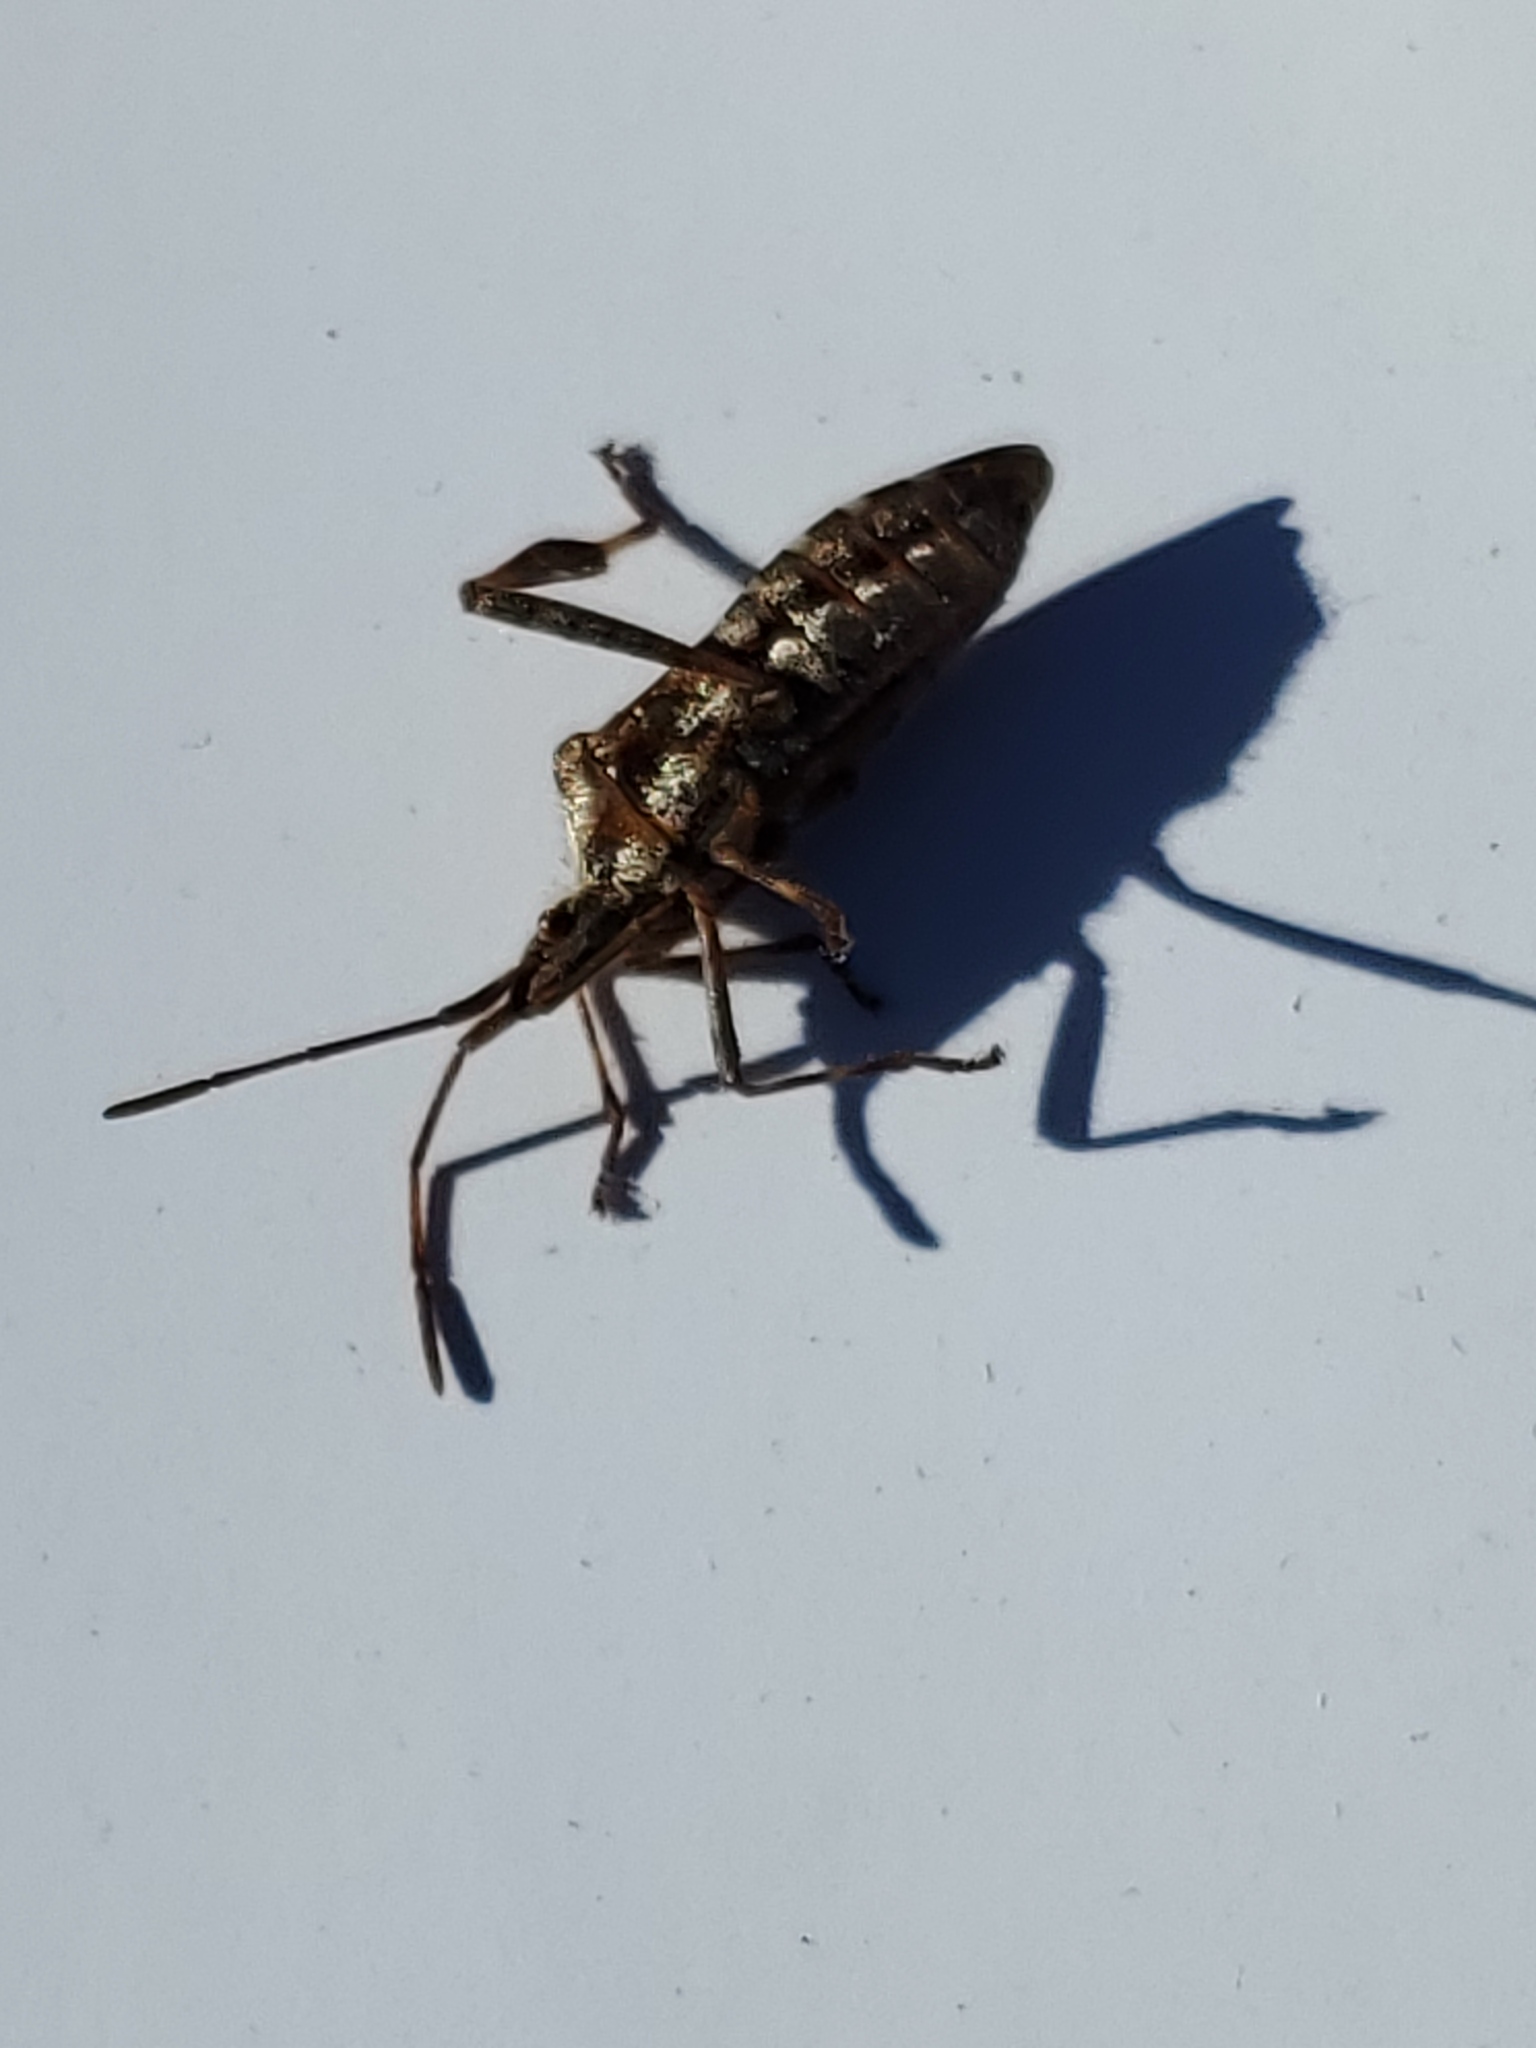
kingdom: Animalia
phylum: Arthropoda
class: Insecta
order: Hemiptera
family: Coreidae
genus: Leptoglossus
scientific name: Leptoglossus occidentalis
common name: Western conifer-seed bug
